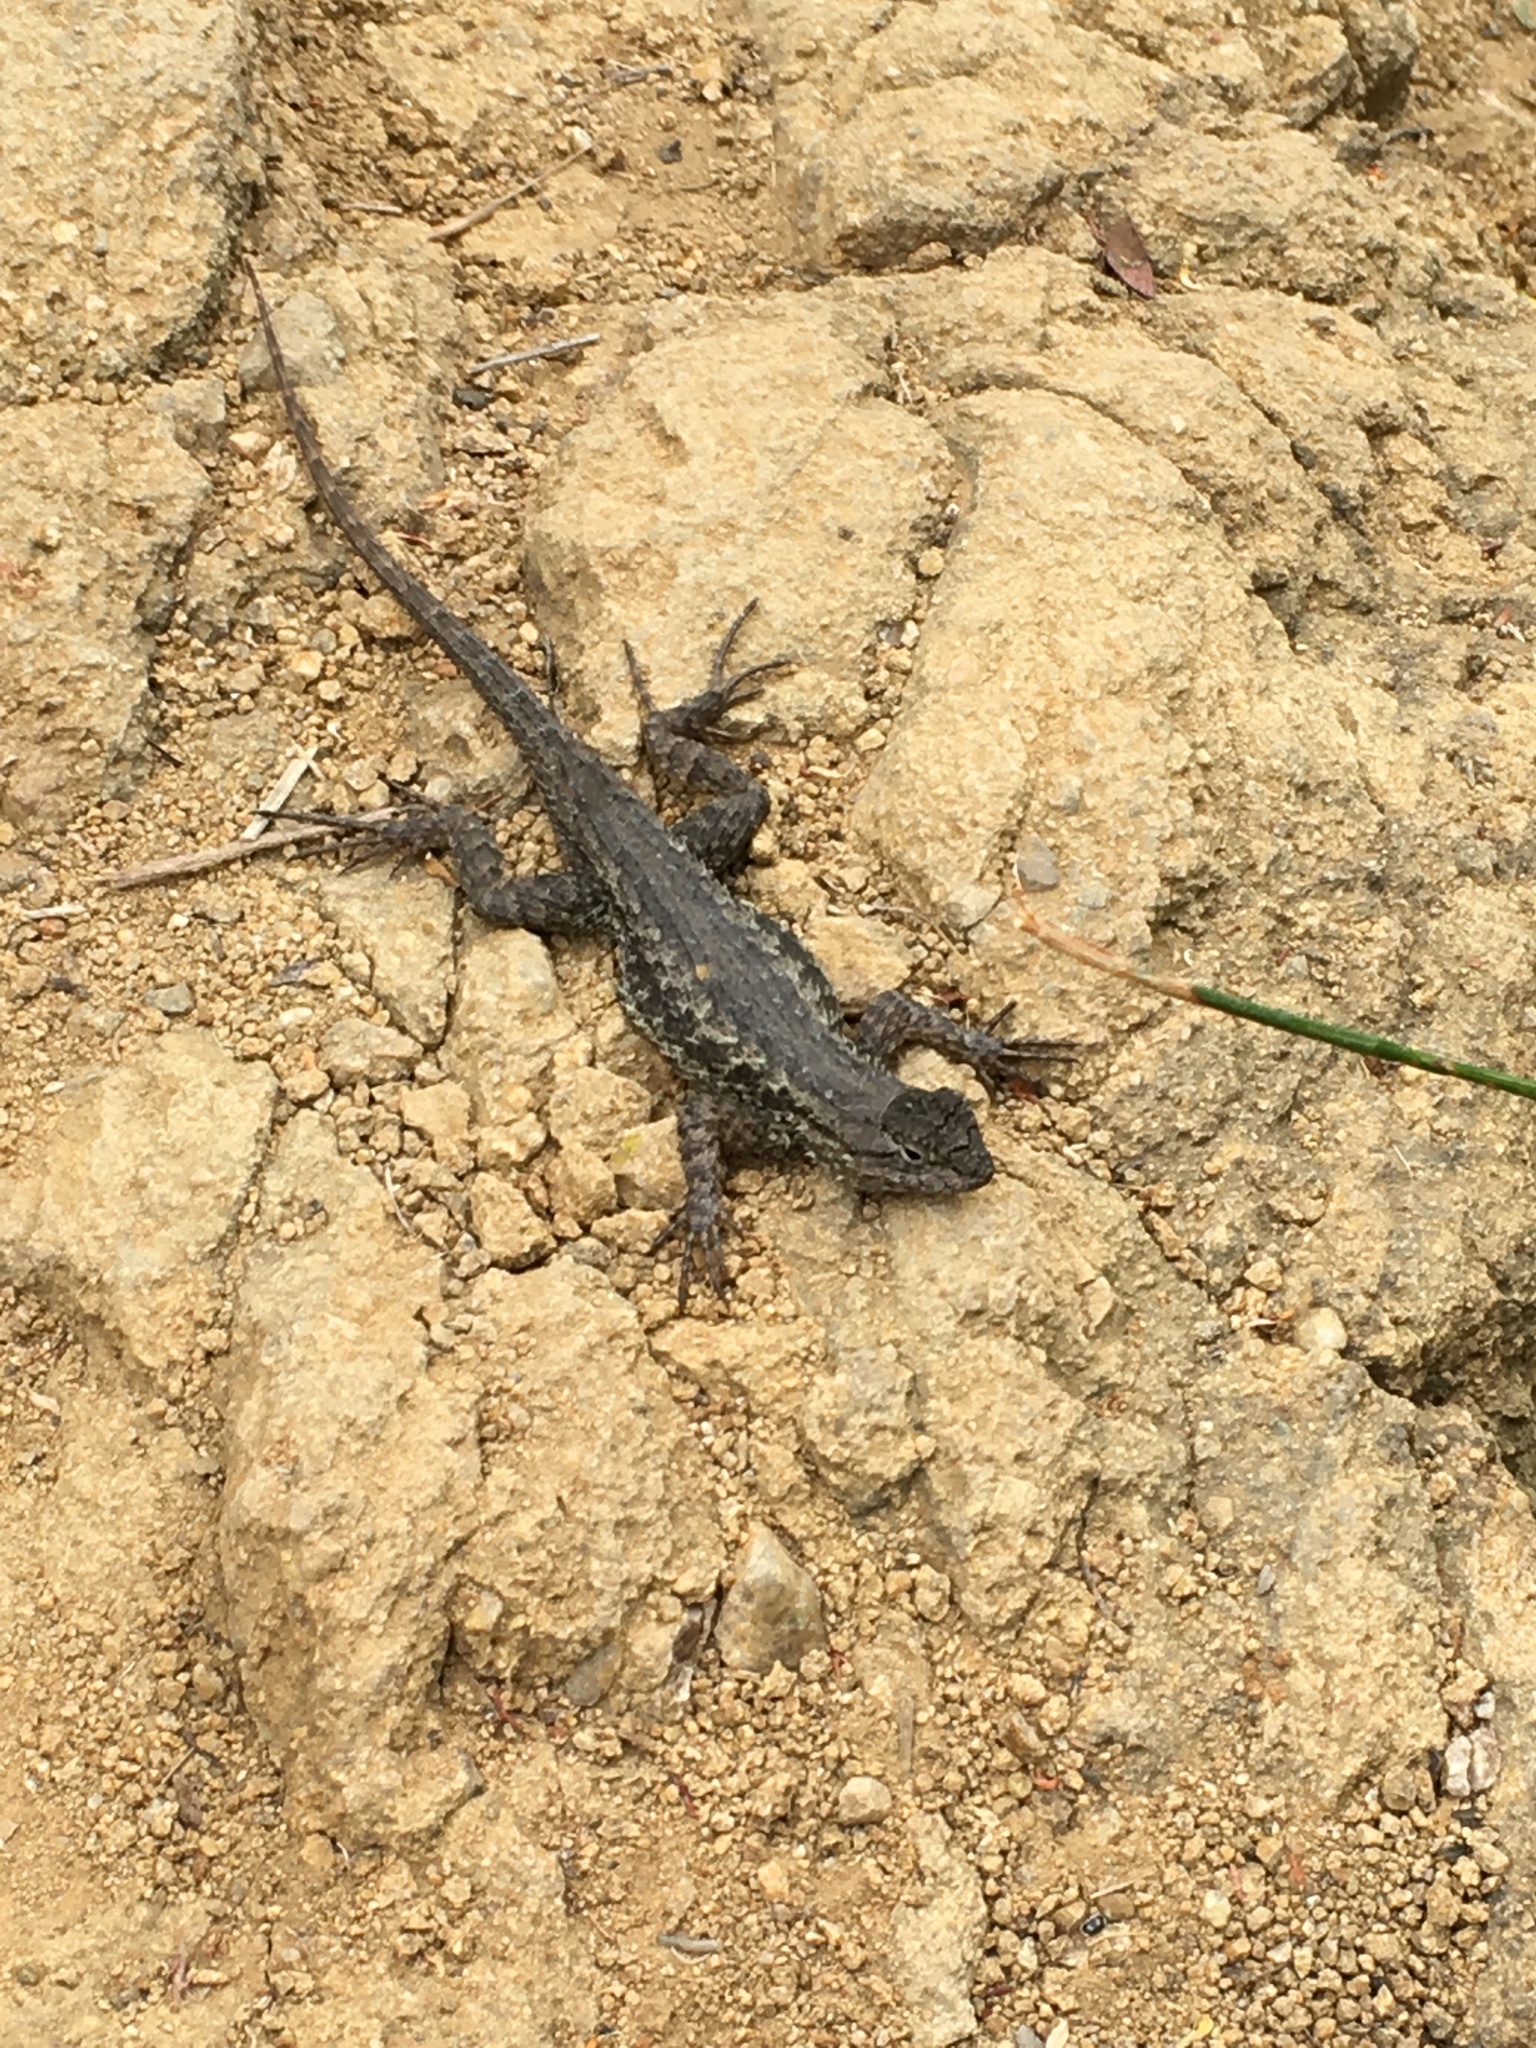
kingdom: Animalia
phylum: Chordata
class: Squamata
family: Phrynosomatidae
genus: Sceloporus
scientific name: Sceloporus occidentalis
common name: Western fence lizard
